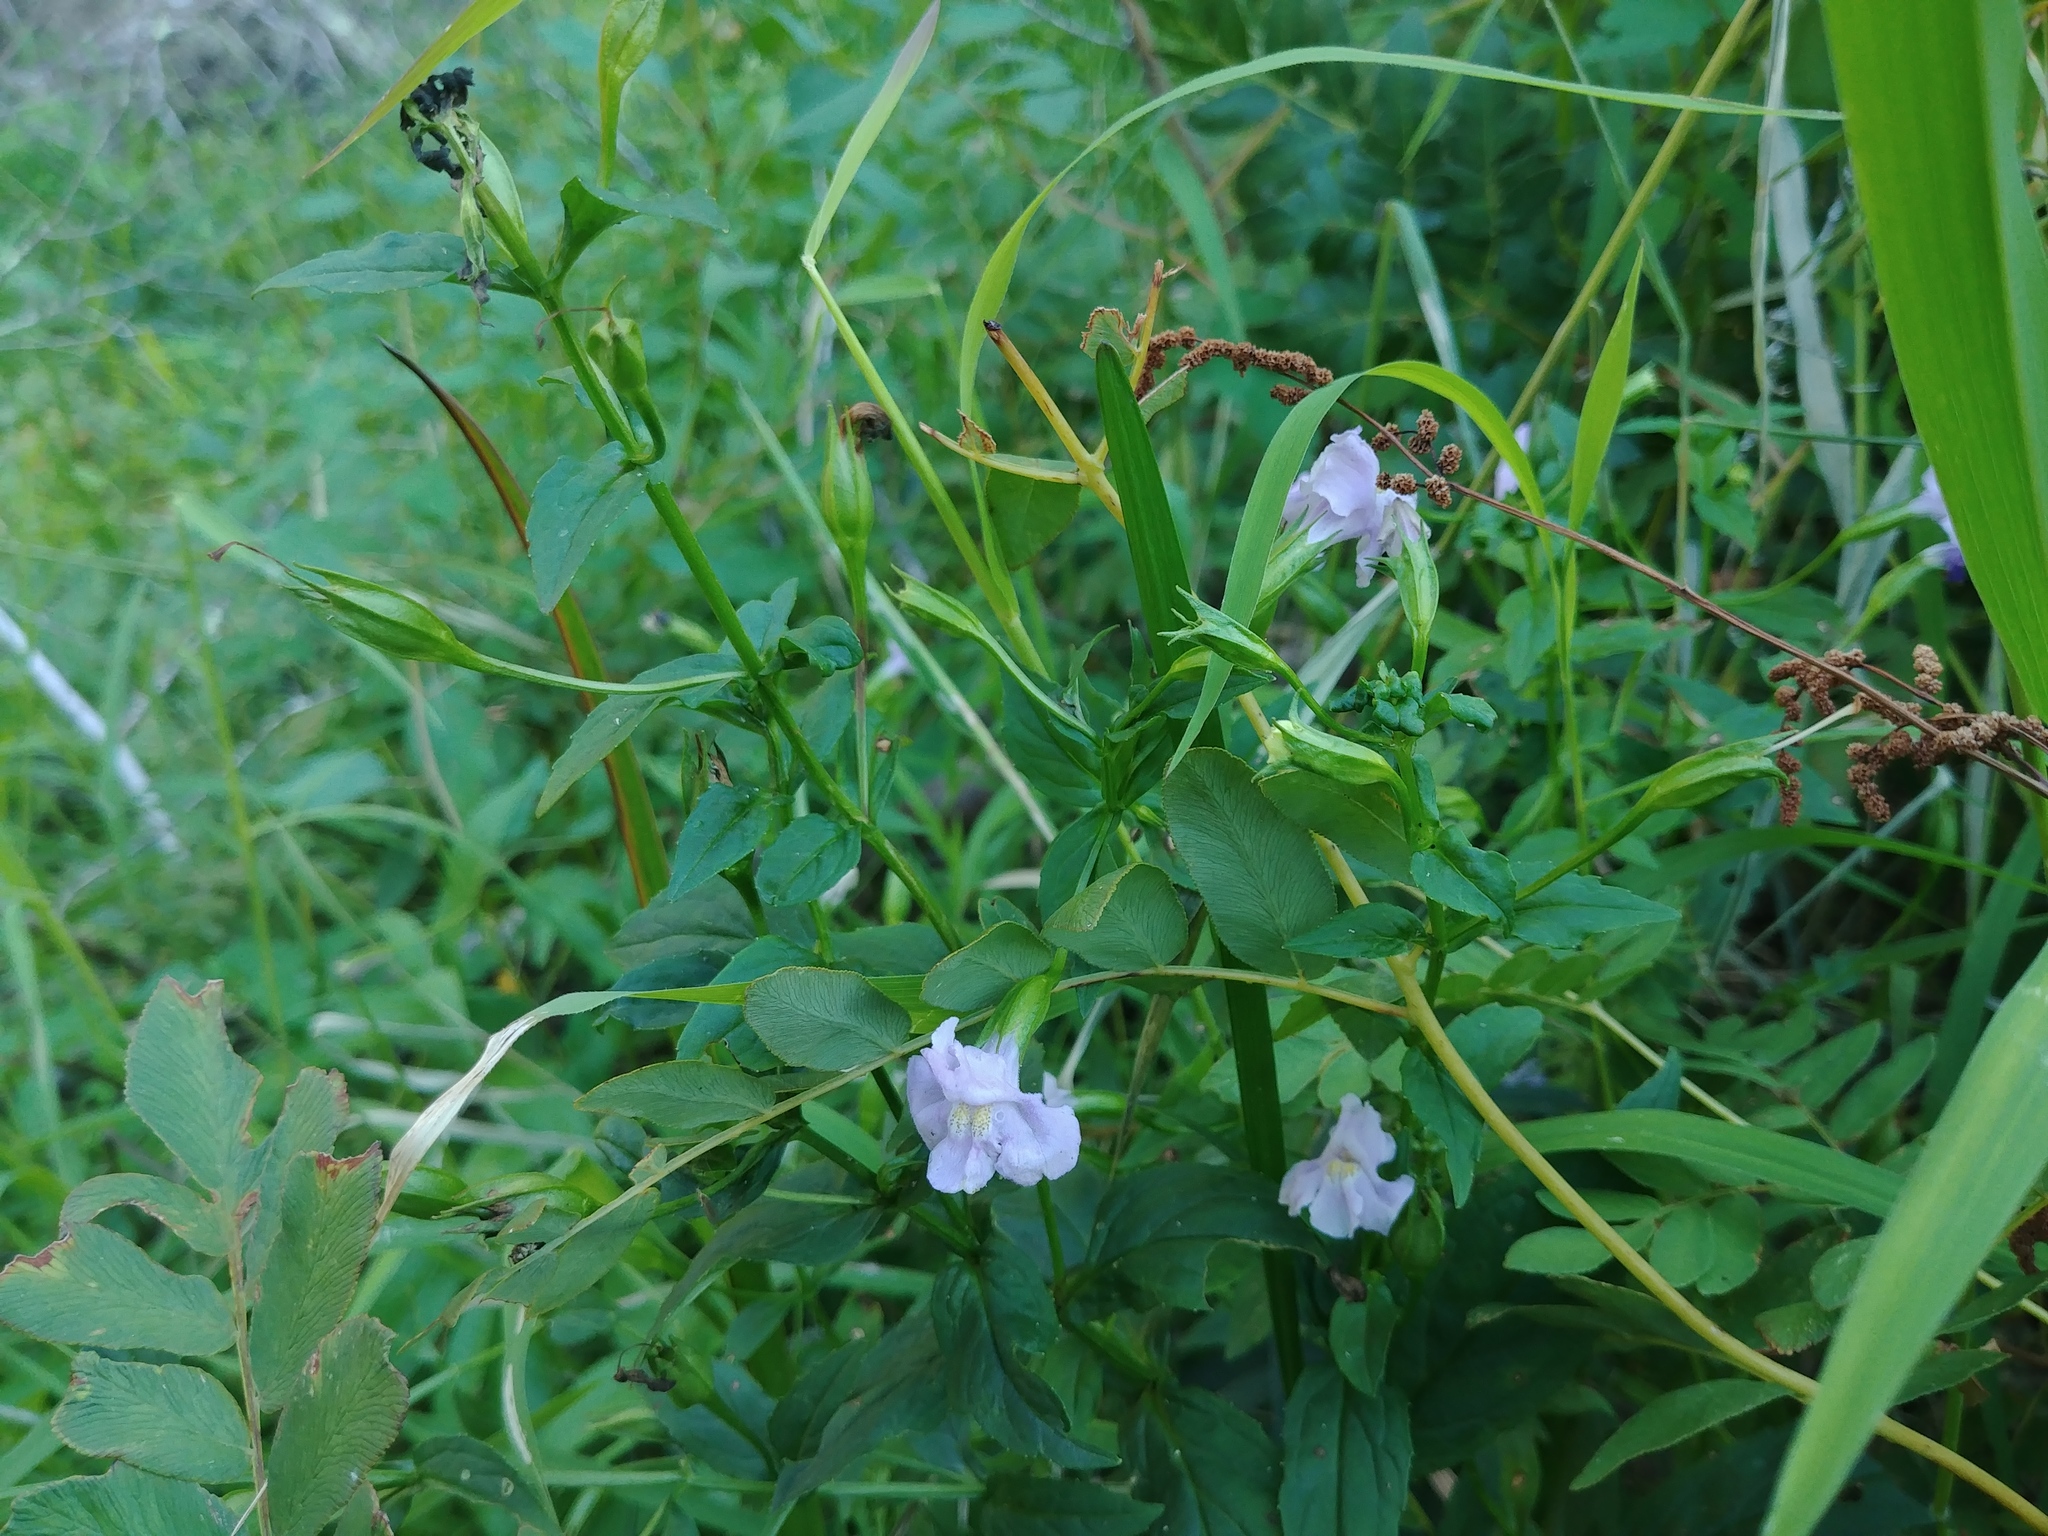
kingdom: Plantae
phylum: Tracheophyta
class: Magnoliopsida
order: Lamiales
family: Phrymaceae
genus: Mimulus
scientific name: Mimulus ringens
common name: Allegheny monkeyflower
